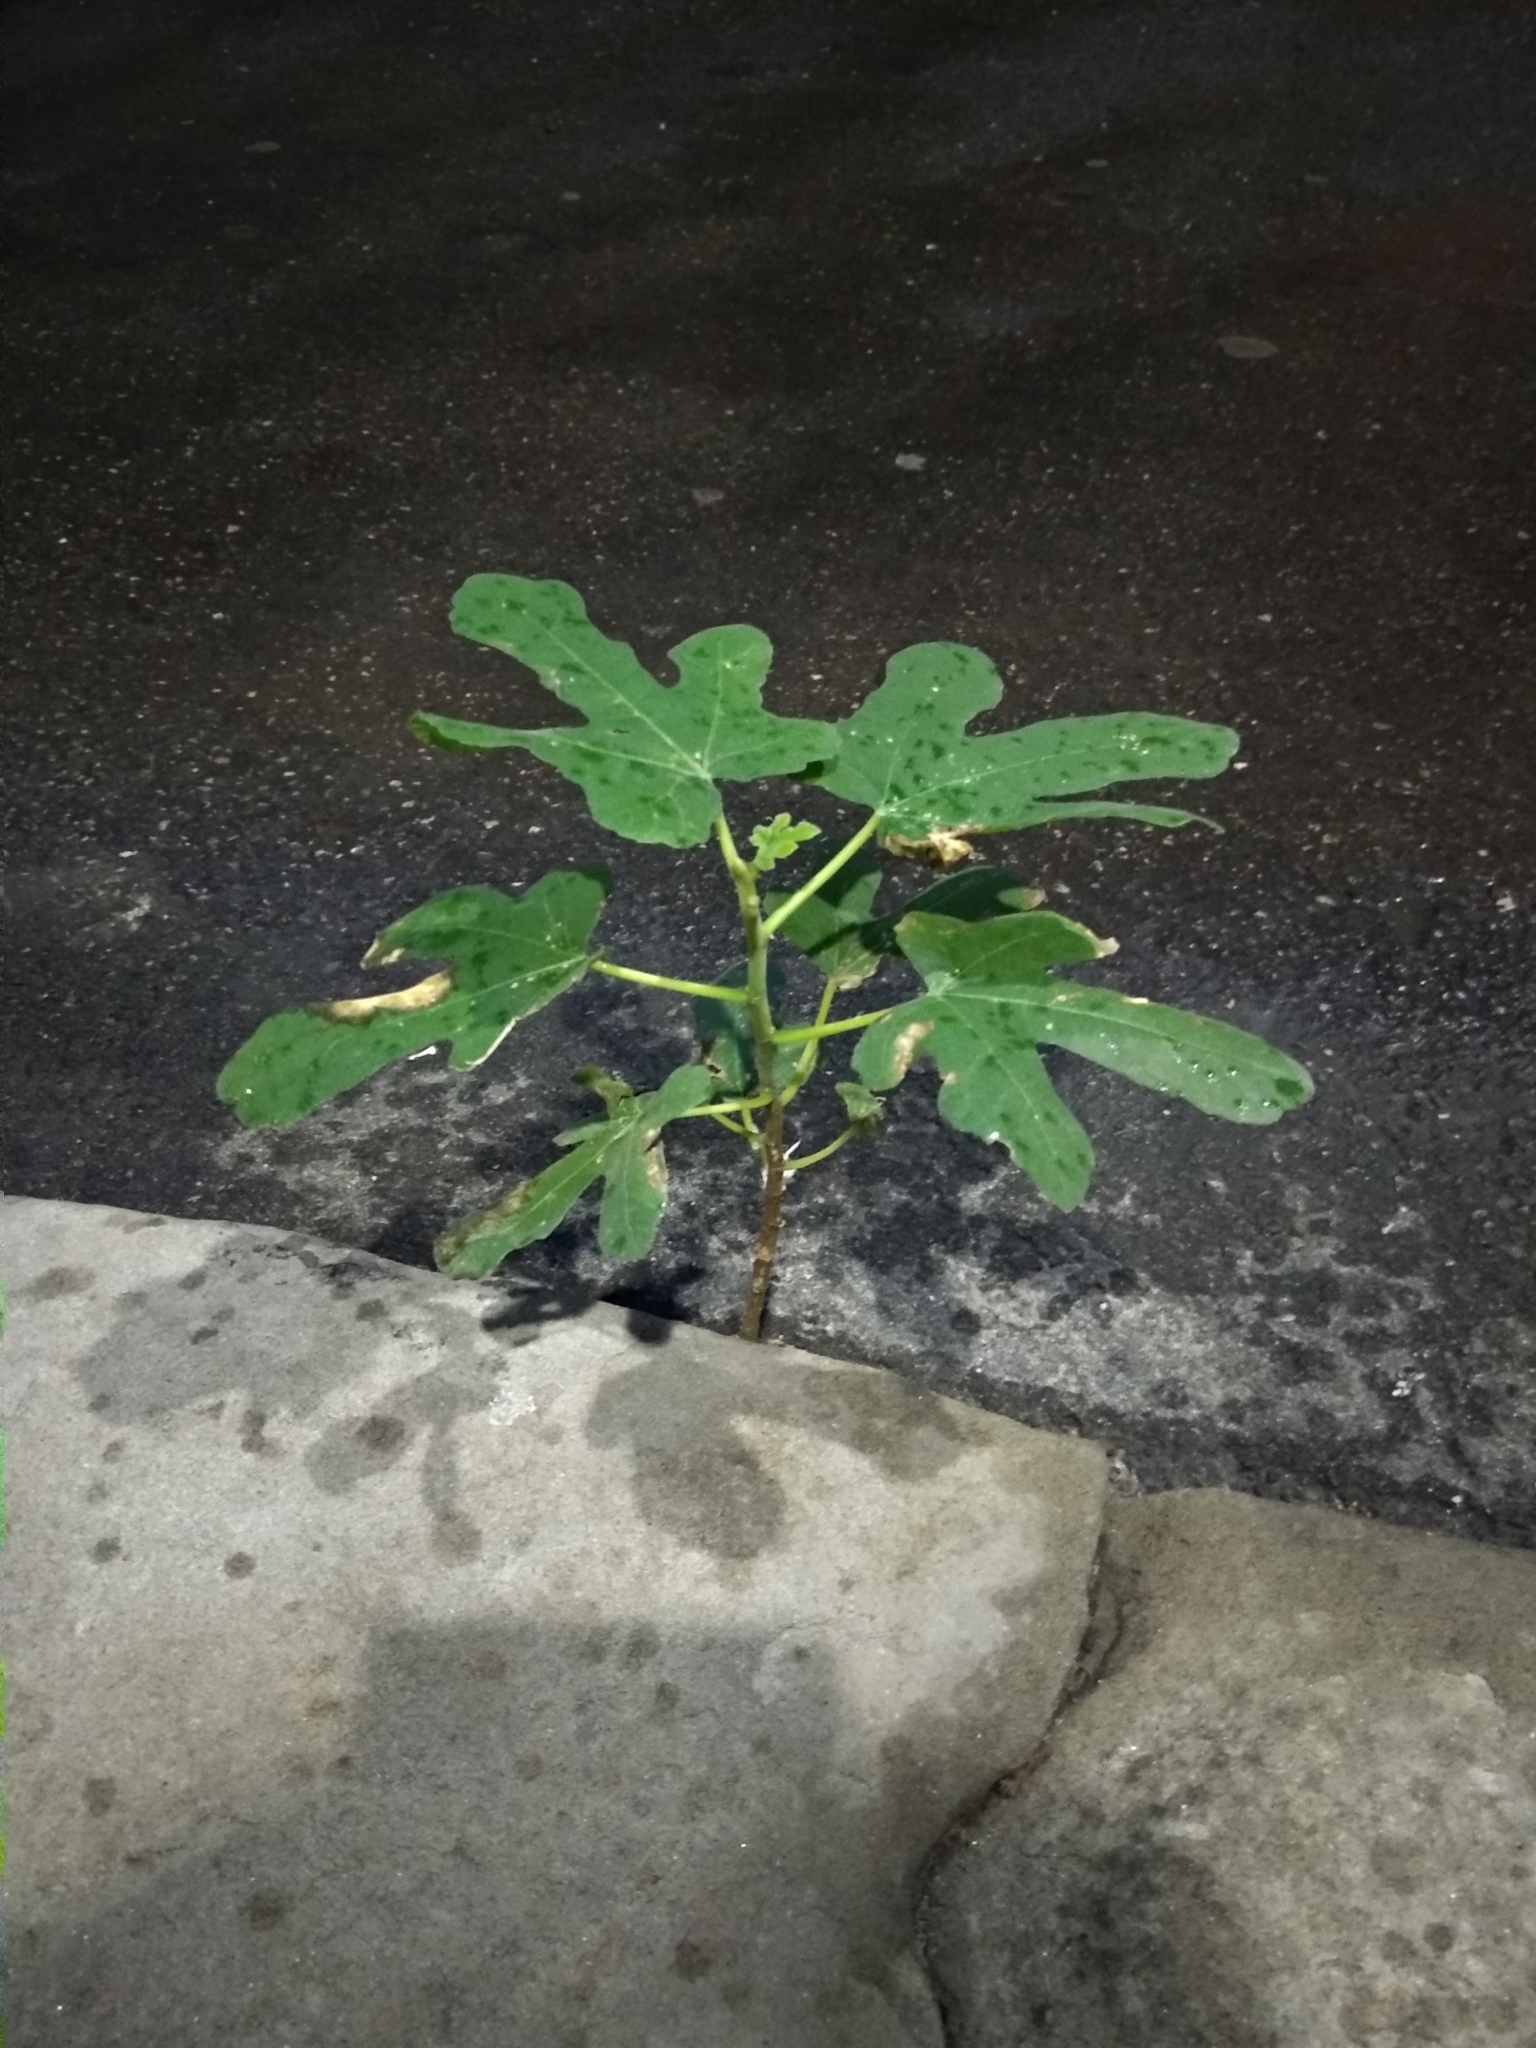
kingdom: Plantae
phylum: Tracheophyta
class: Magnoliopsida
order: Rosales
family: Moraceae
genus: Ficus
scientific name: Ficus carica
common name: Fig
